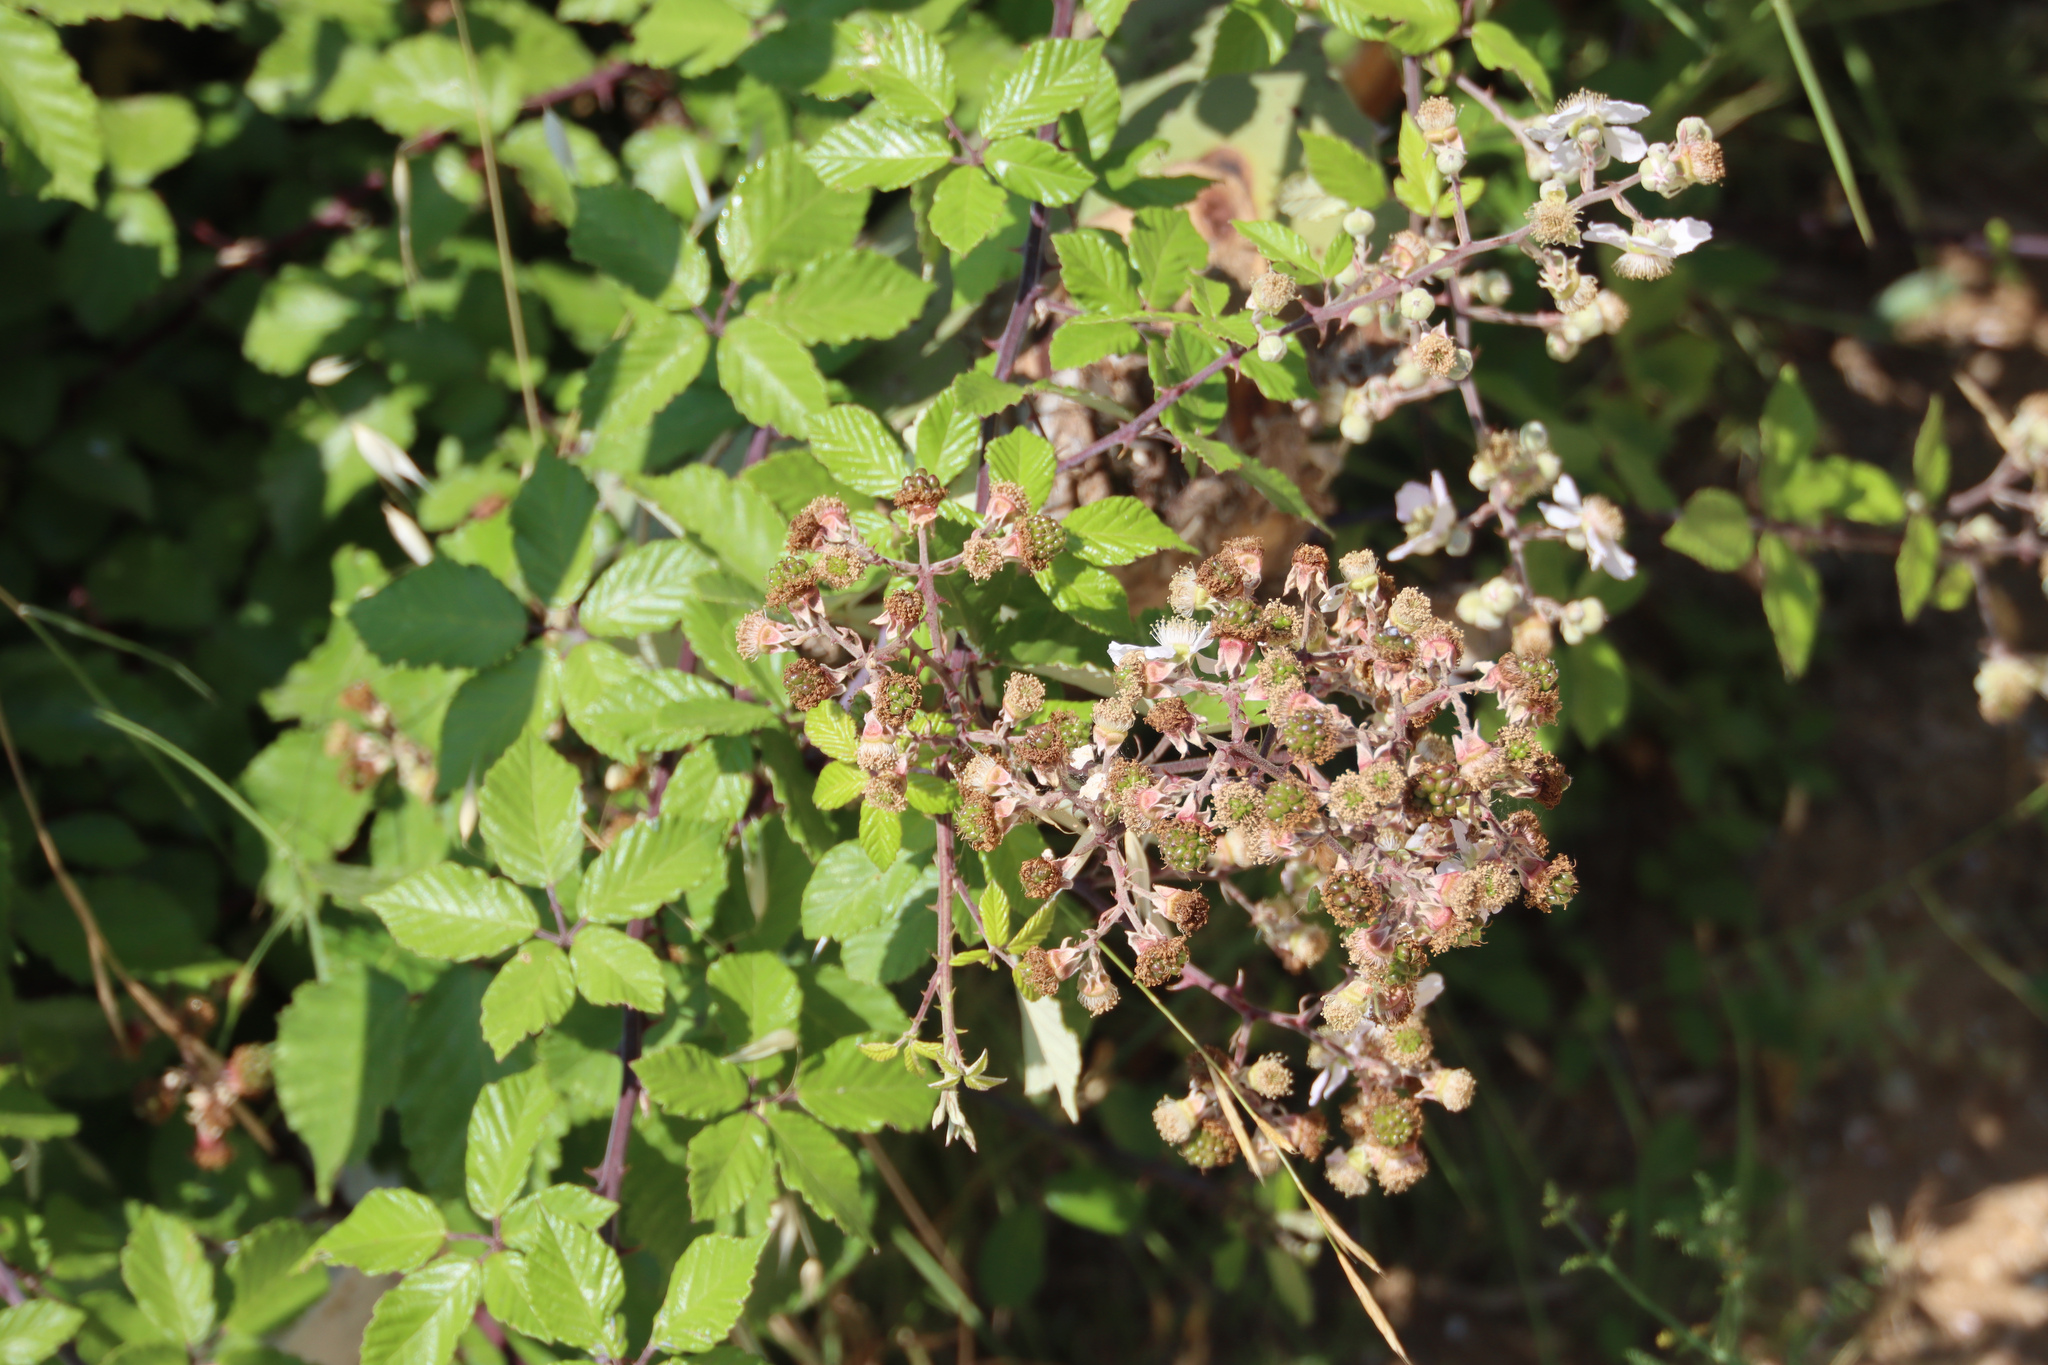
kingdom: Plantae
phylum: Tracheophyta
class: Magnoliopsida
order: Rosales
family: Rosaceae
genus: Rubus
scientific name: Rubus ulmifolius
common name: Elmleaf blackberry
